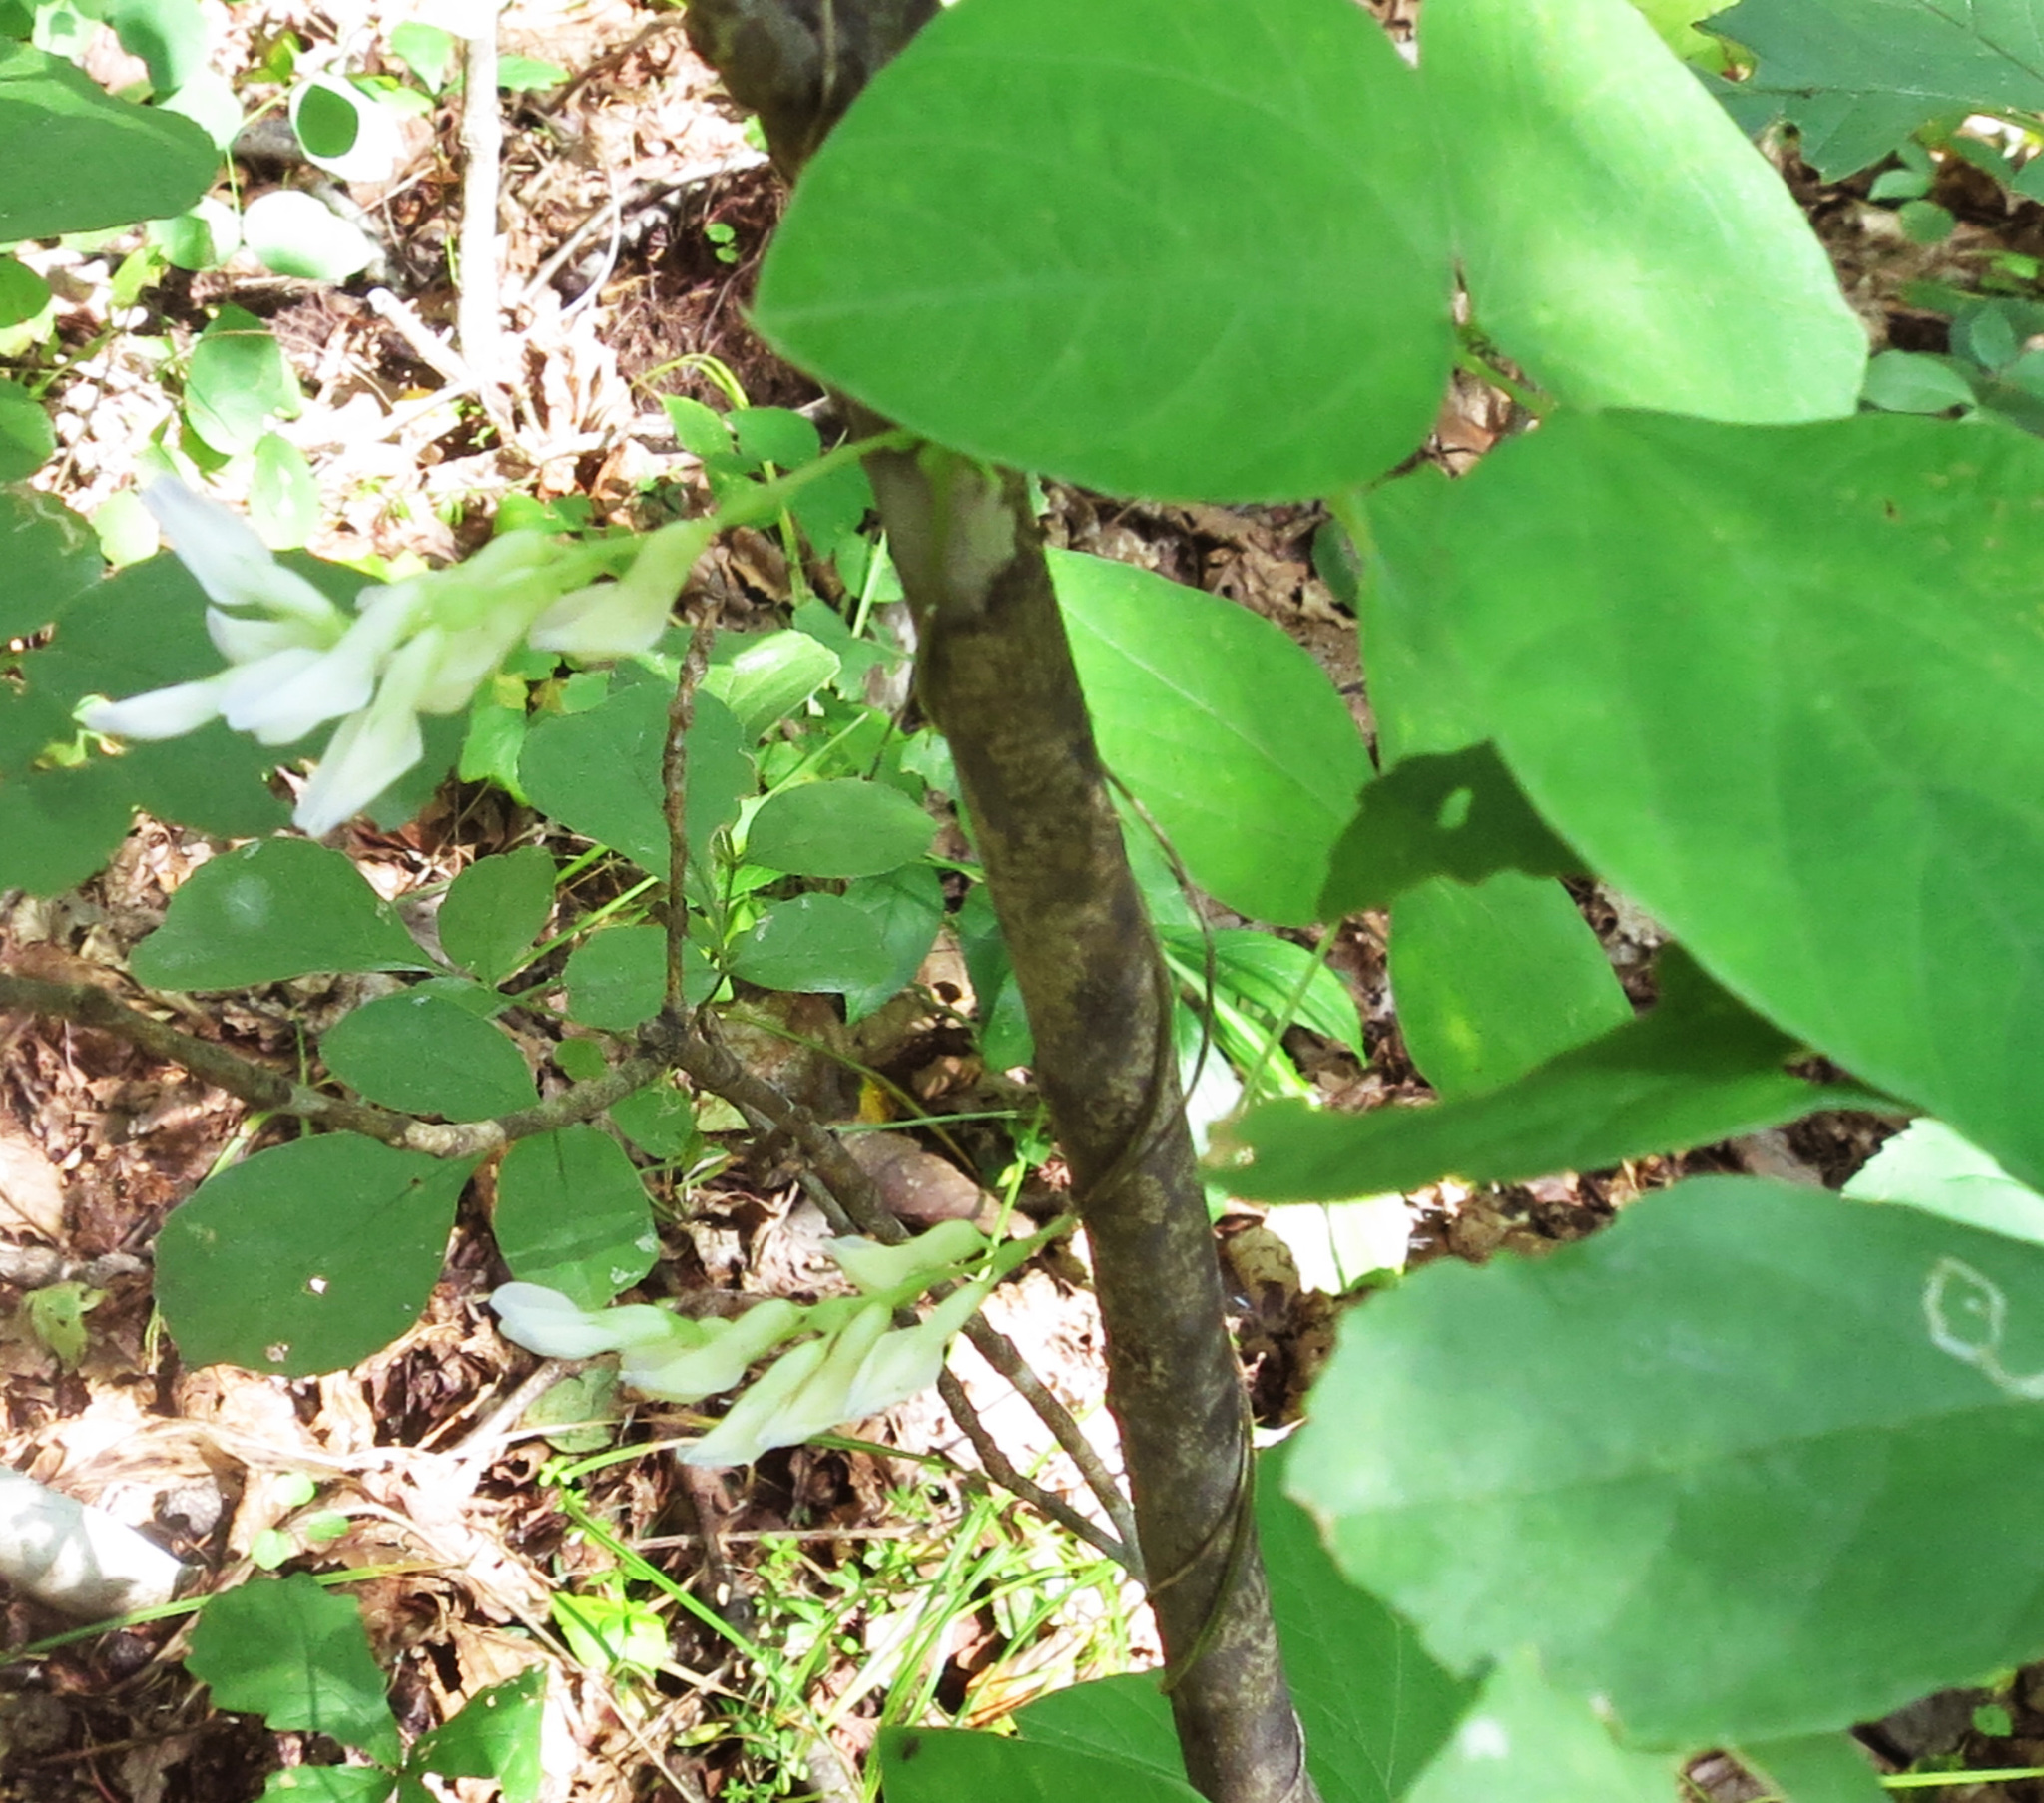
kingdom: Plantae
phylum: Tracheophyta
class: Magnoliopsida
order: Fabales
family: Fabaceae
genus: Amphicarpaea
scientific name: Amphicarpaea edgeworthii
